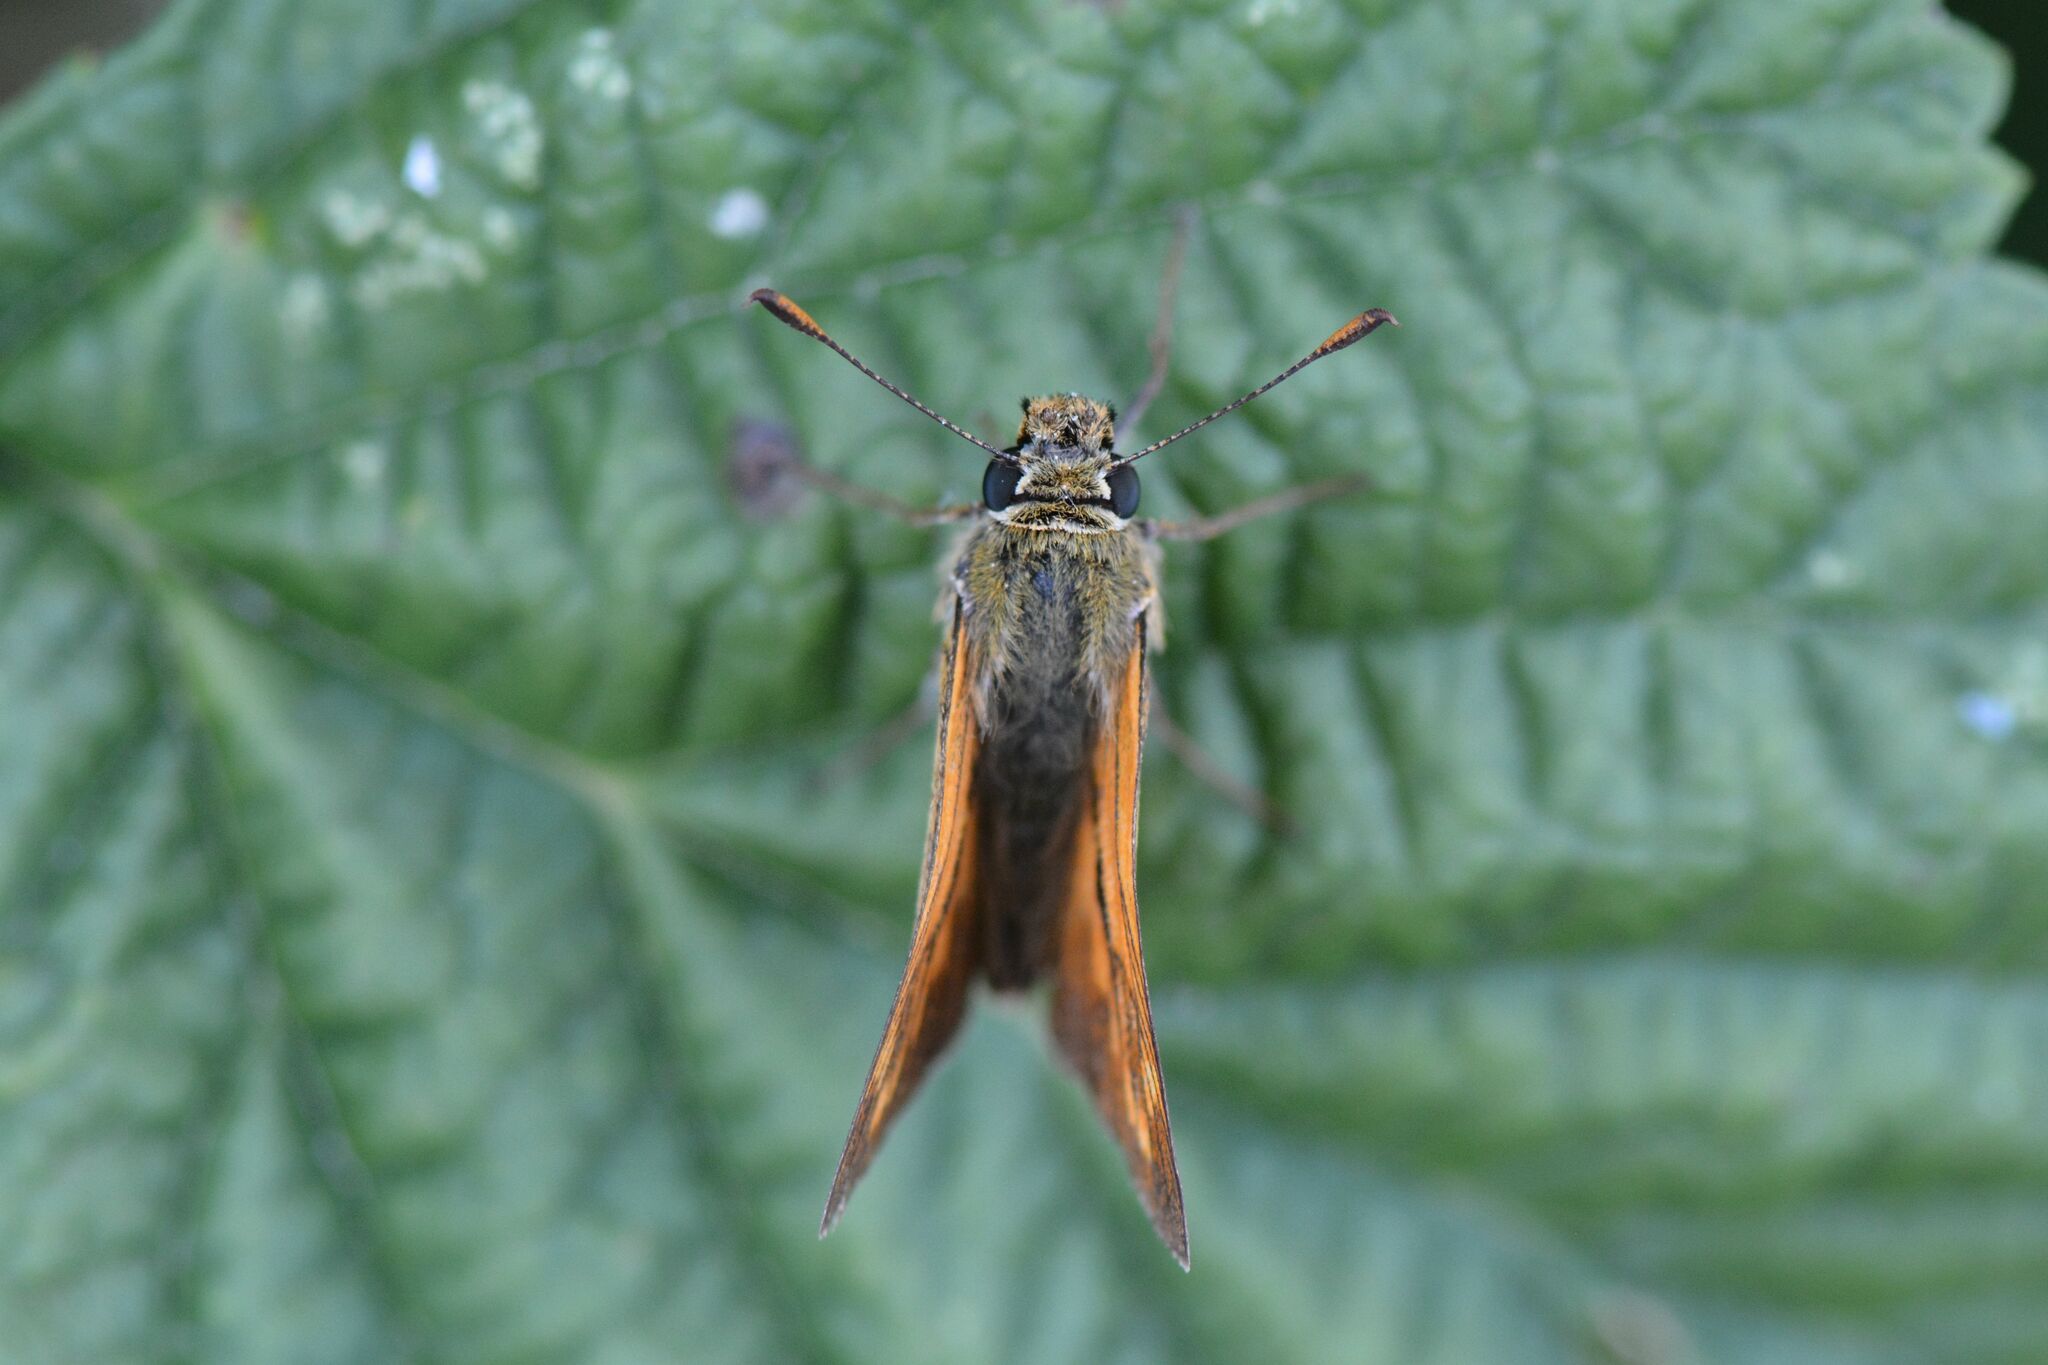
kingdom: Animalia
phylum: Arthropoda
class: Insecta
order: Lepidoptera
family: Hesperiidae
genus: Ochlodes
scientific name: Ochlodes venata
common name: Large skipper
